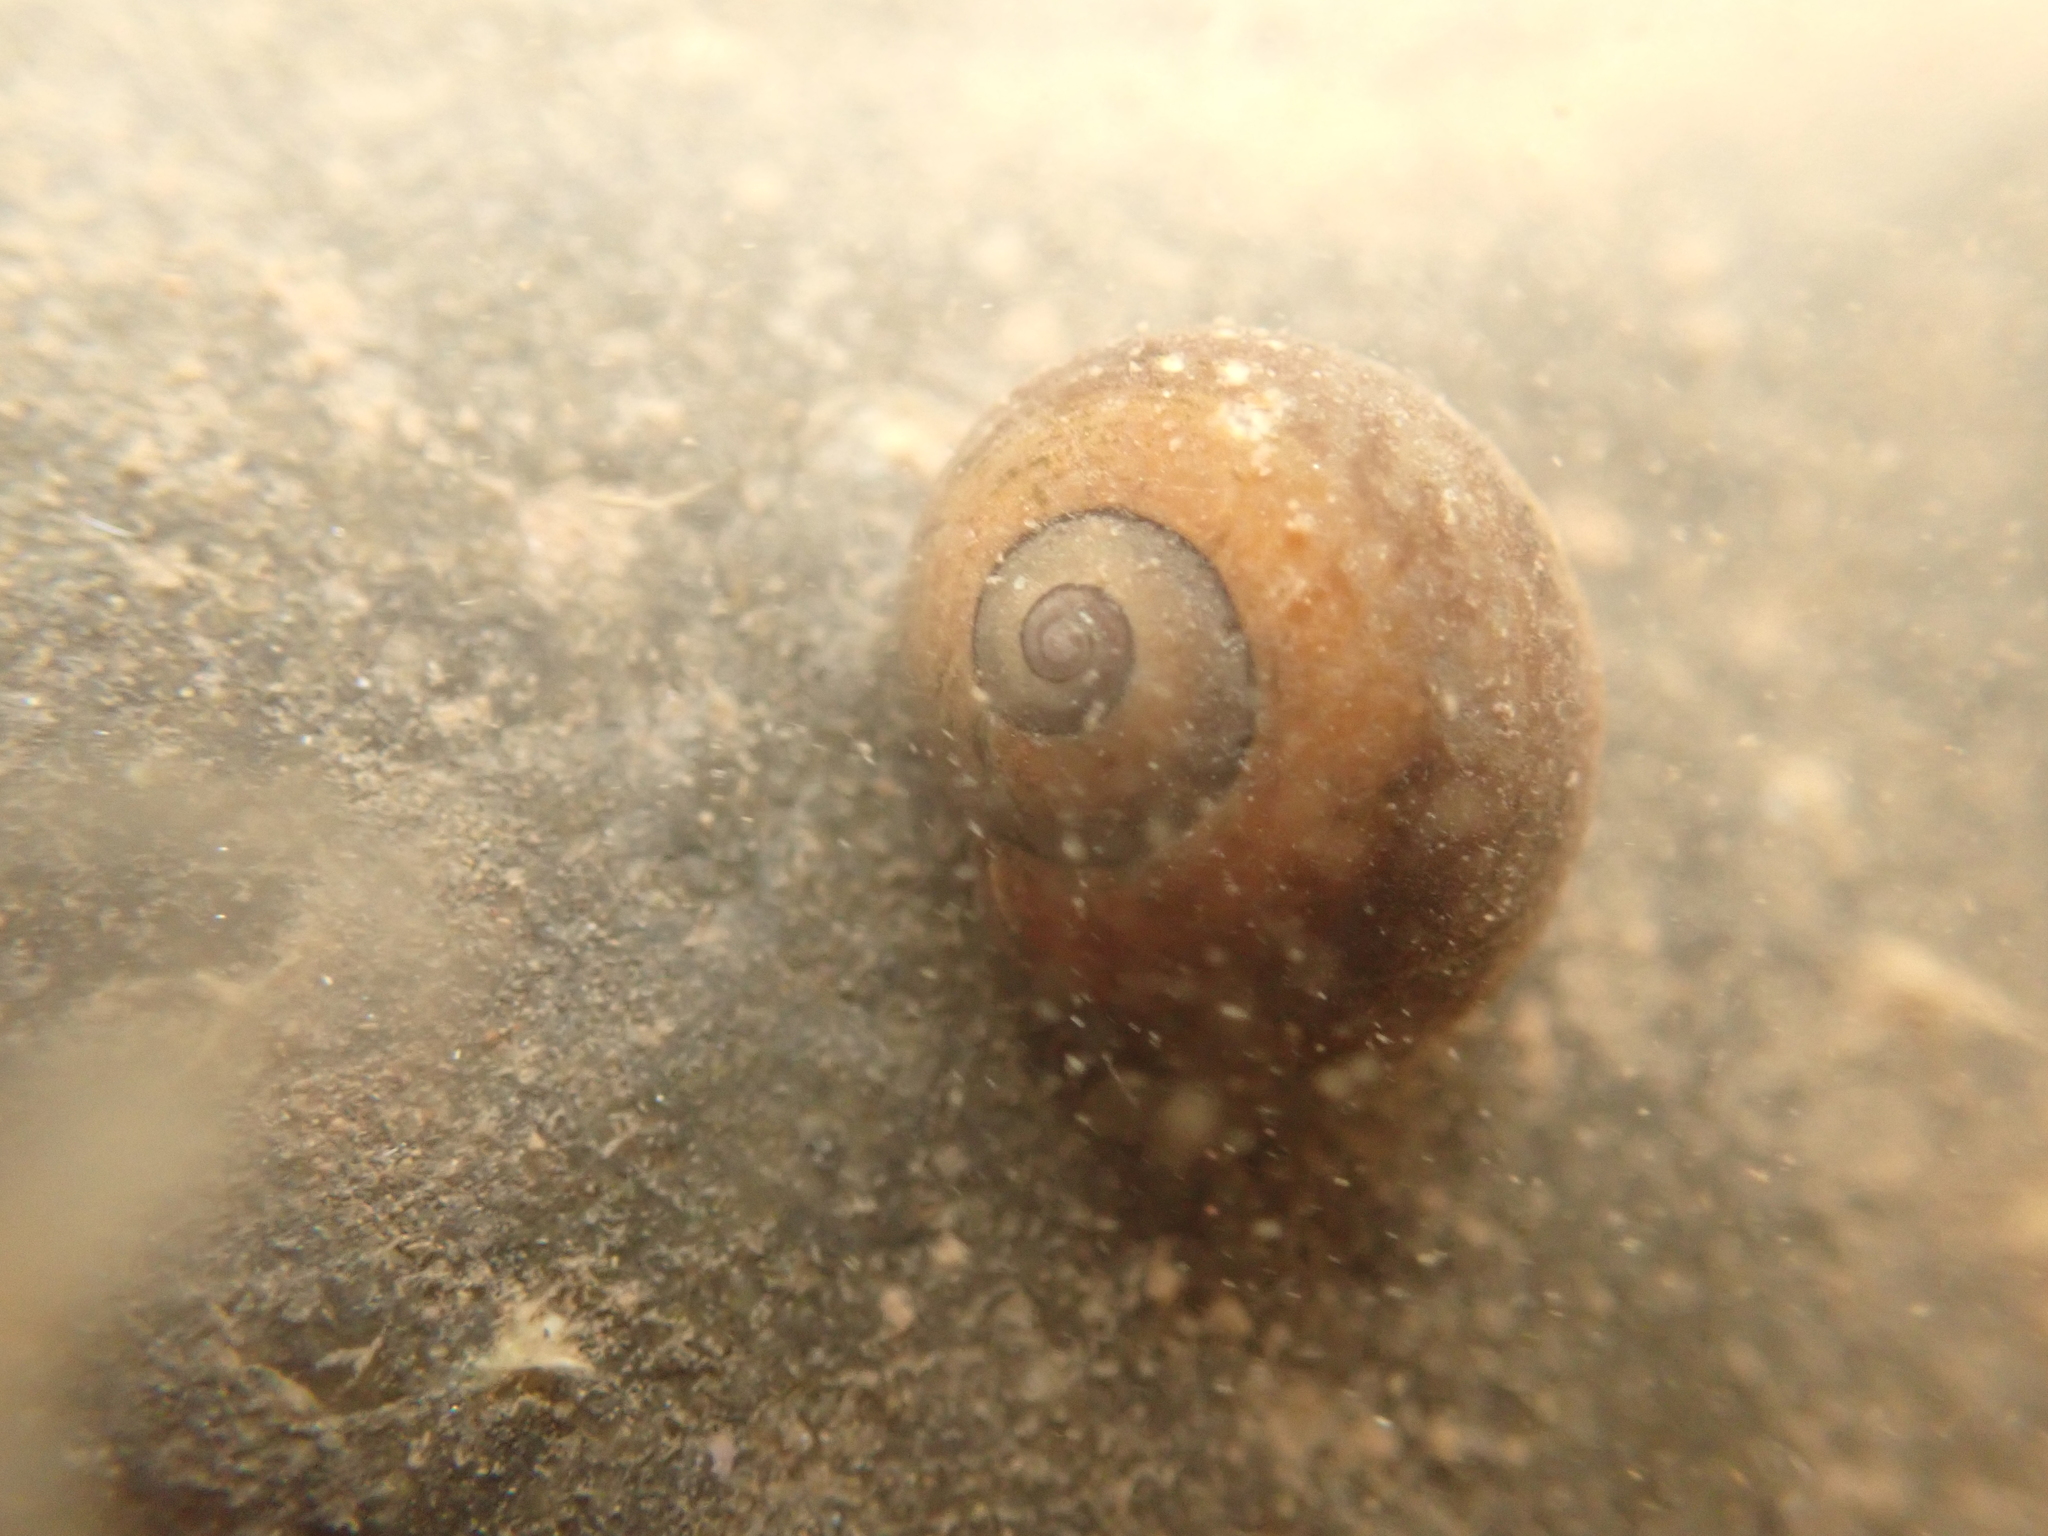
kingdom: Animalia
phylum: Mollusca
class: Gastropoda
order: Littorinimorpha
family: Littorinidae
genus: Littorina
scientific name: Littorina obtusata
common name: Flat periwinkle
